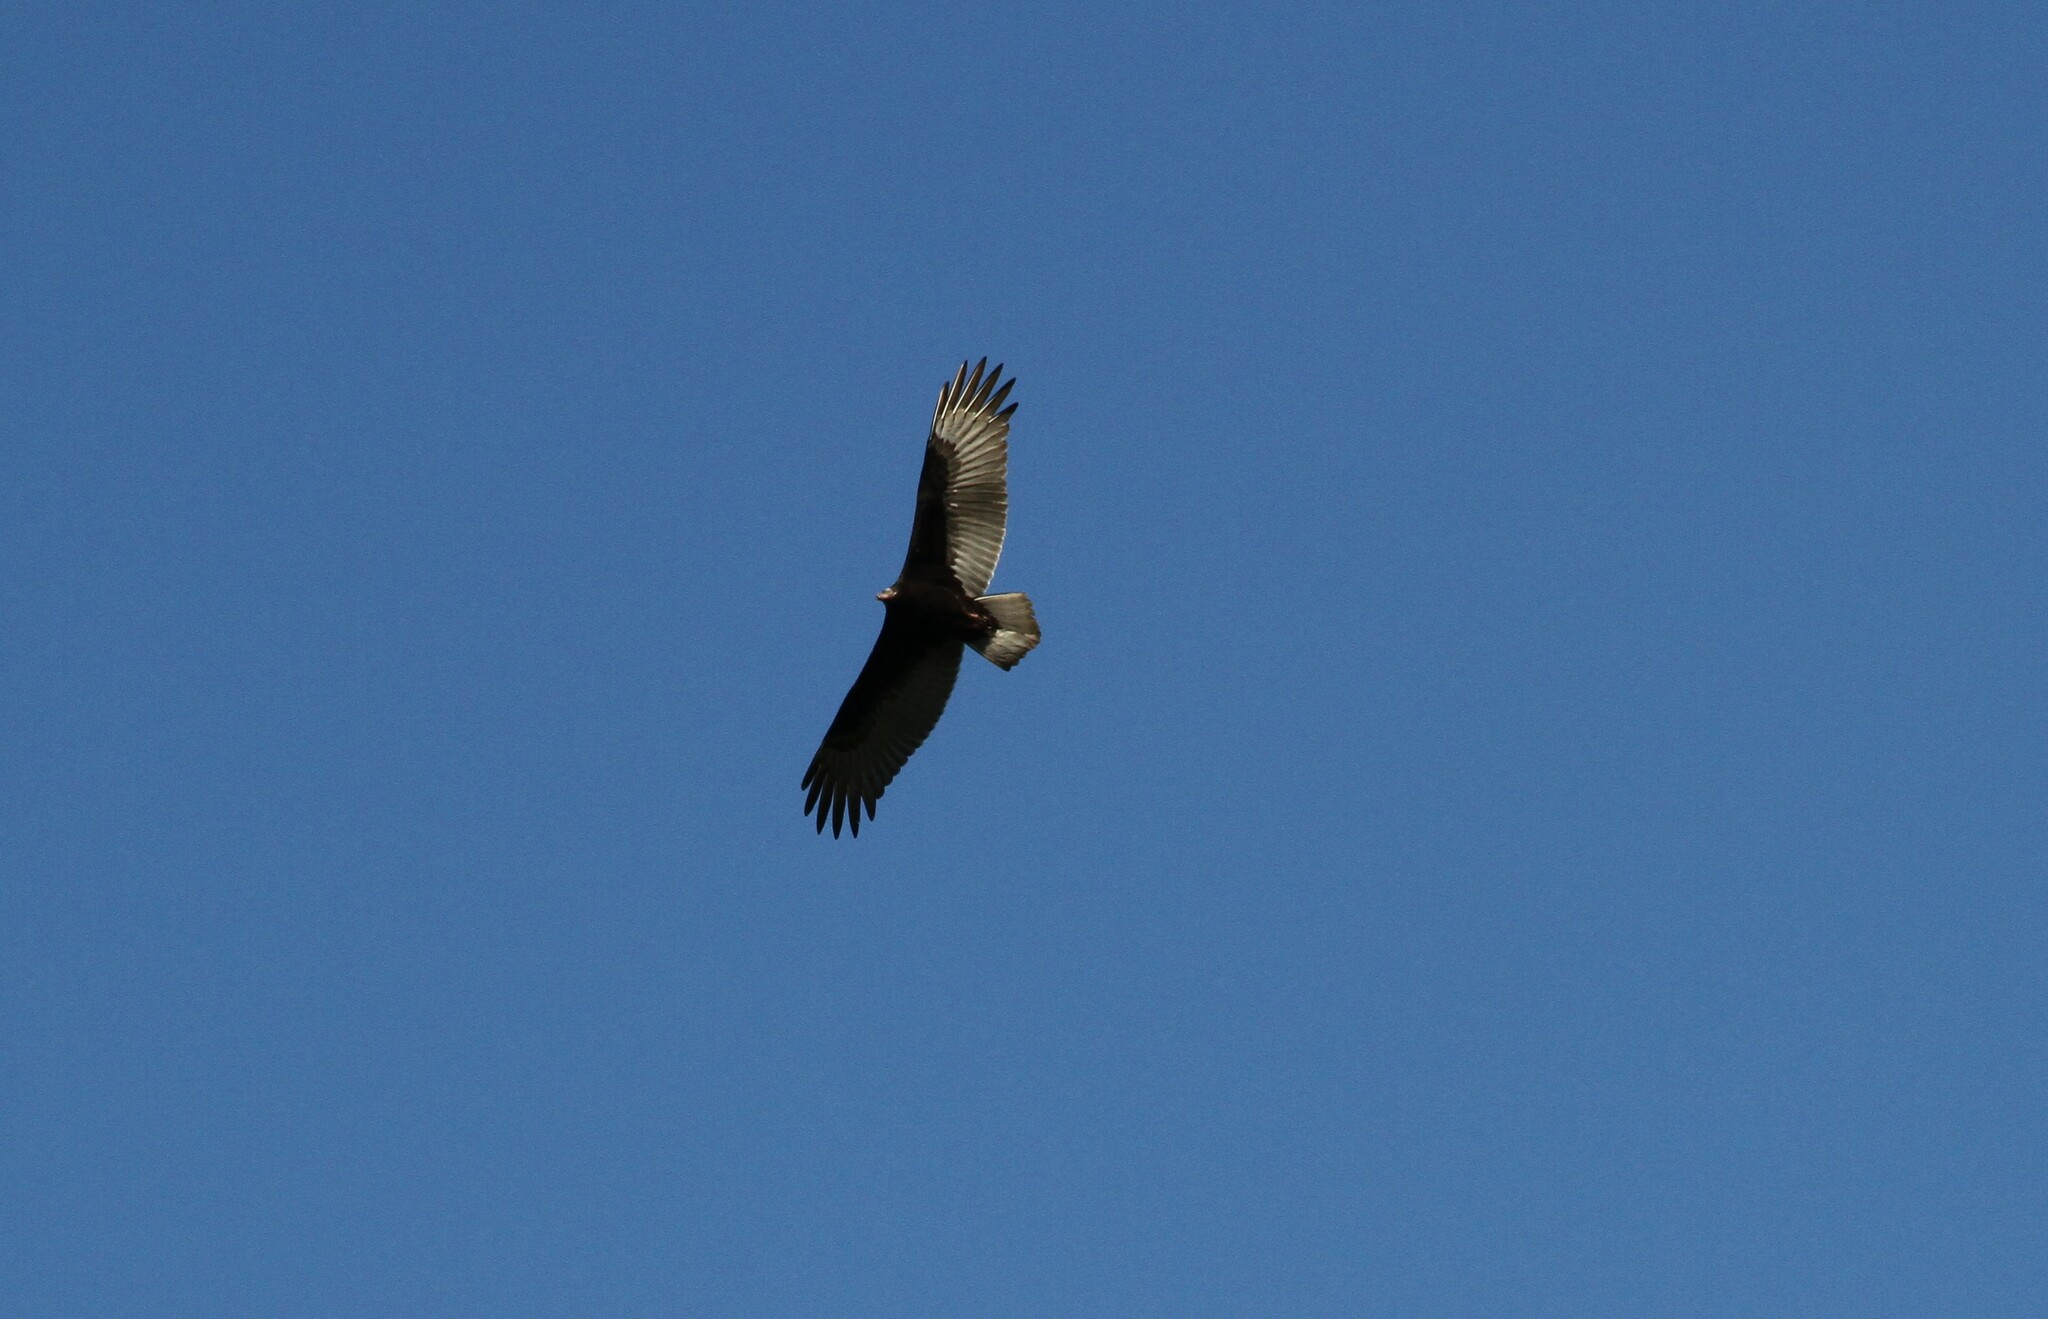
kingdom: Animalia
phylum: Chordata
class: Aves
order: Accipitriformes
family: Cathartidae
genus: Cathartes
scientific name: Cathartes aura
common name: Turkey vulture
